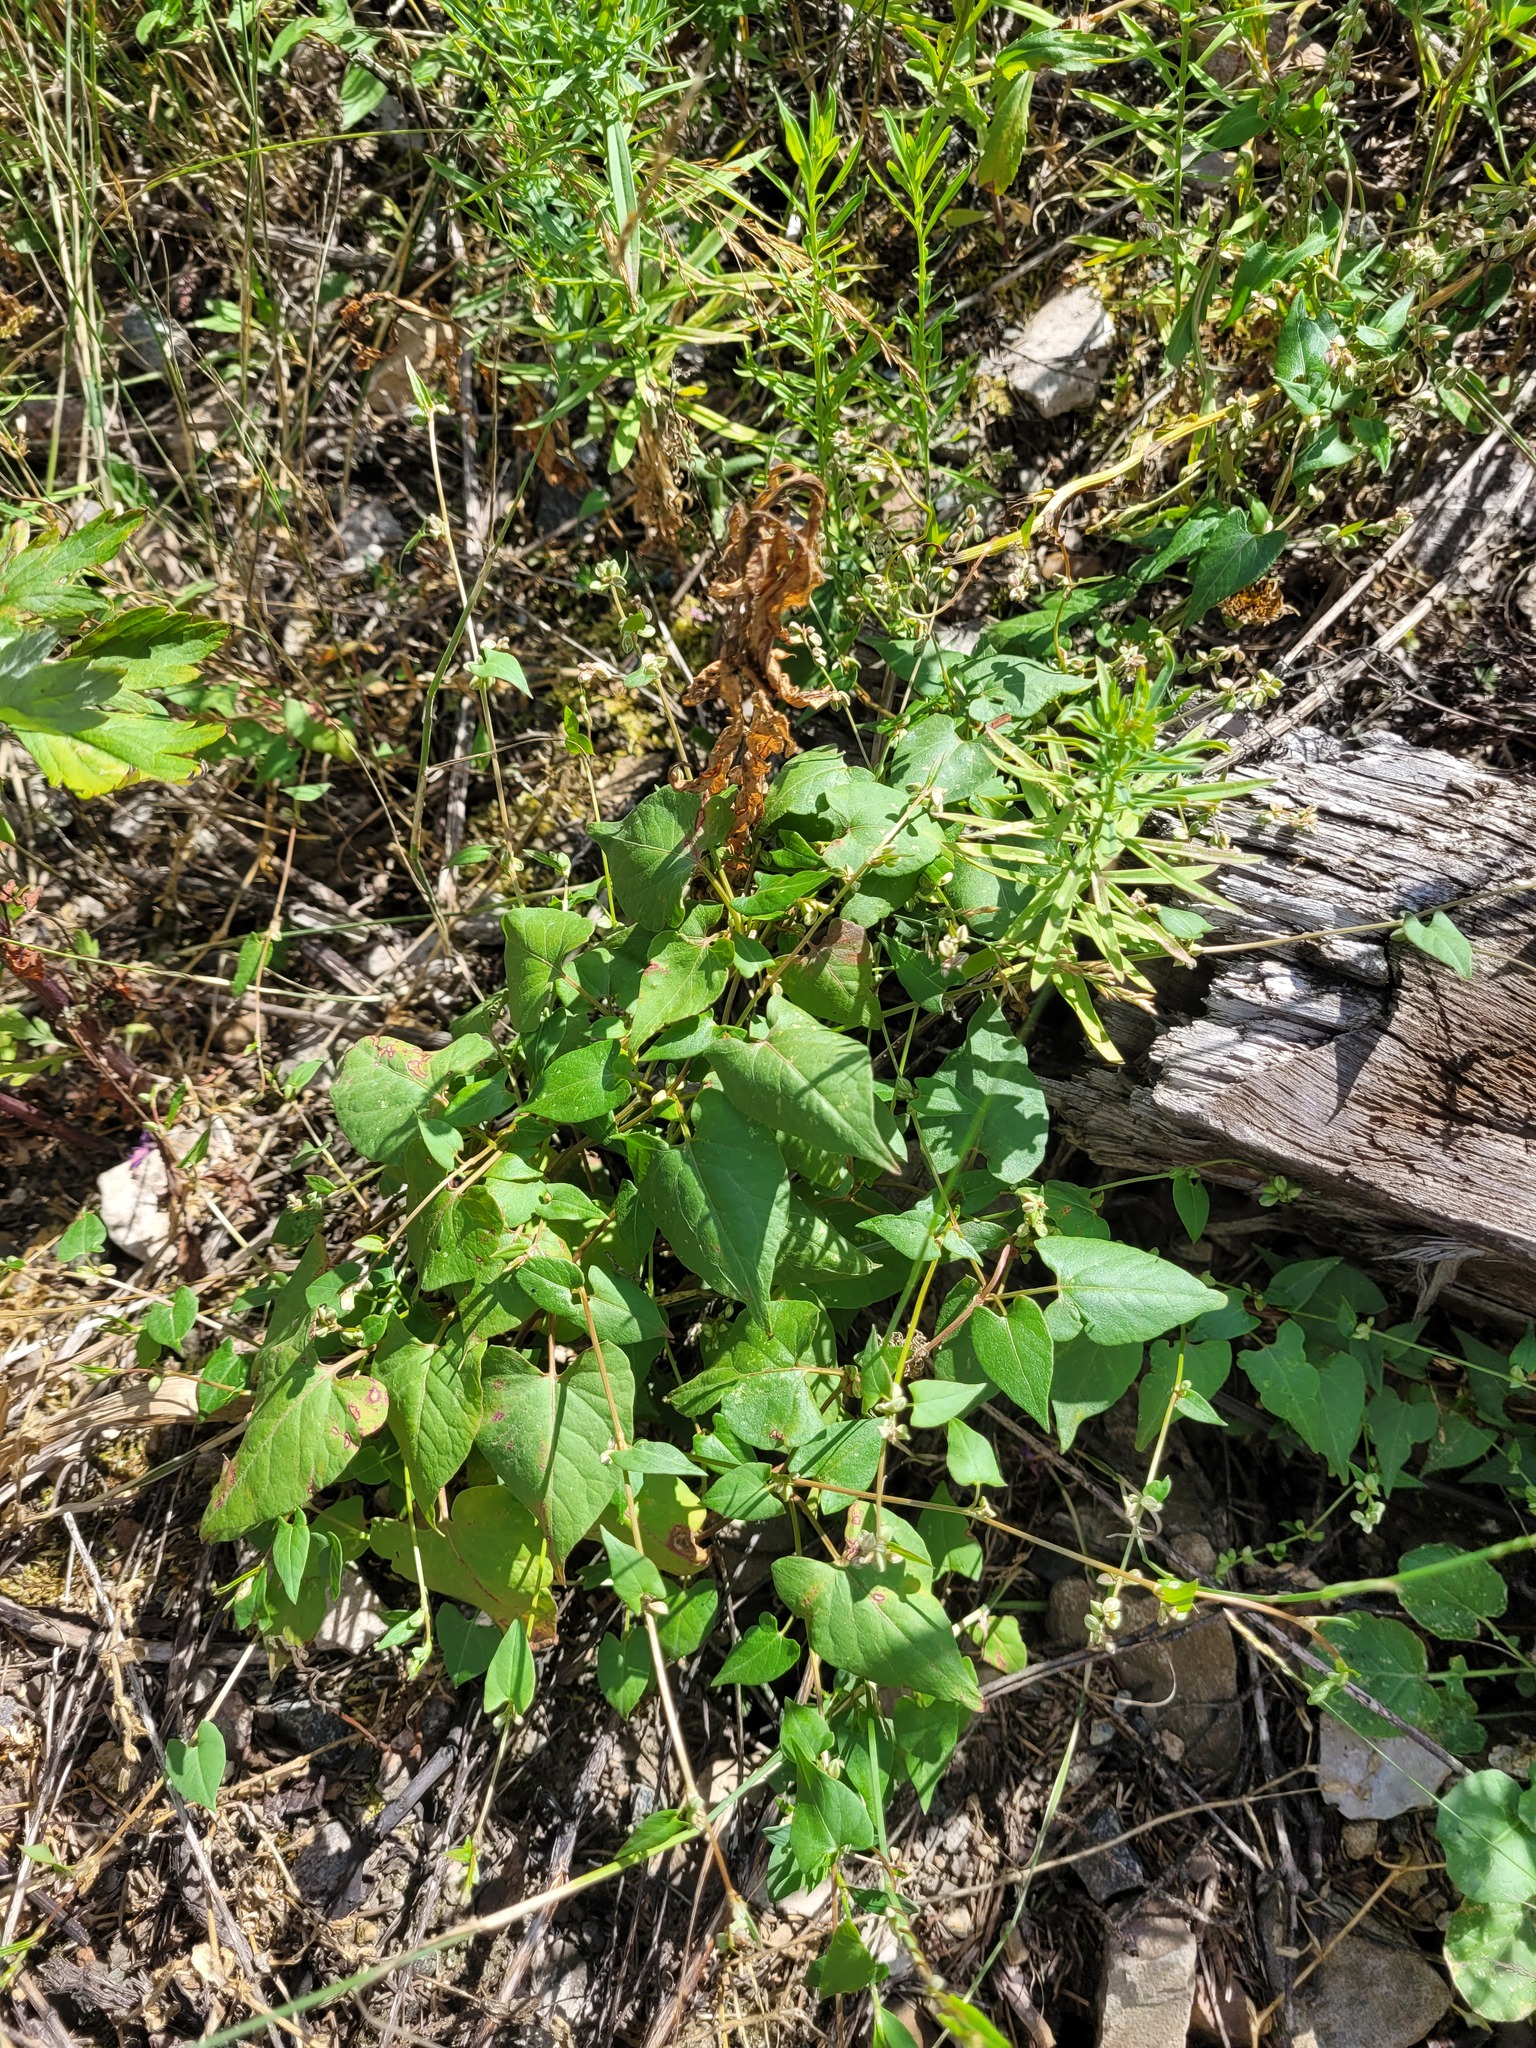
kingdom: Plantae
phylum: Tracheophyta
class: Magnoliopsida
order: Caryophyllales
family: Polygonaceae
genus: Fallopia
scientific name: Fallopia convolvulus
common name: Black bindweed
